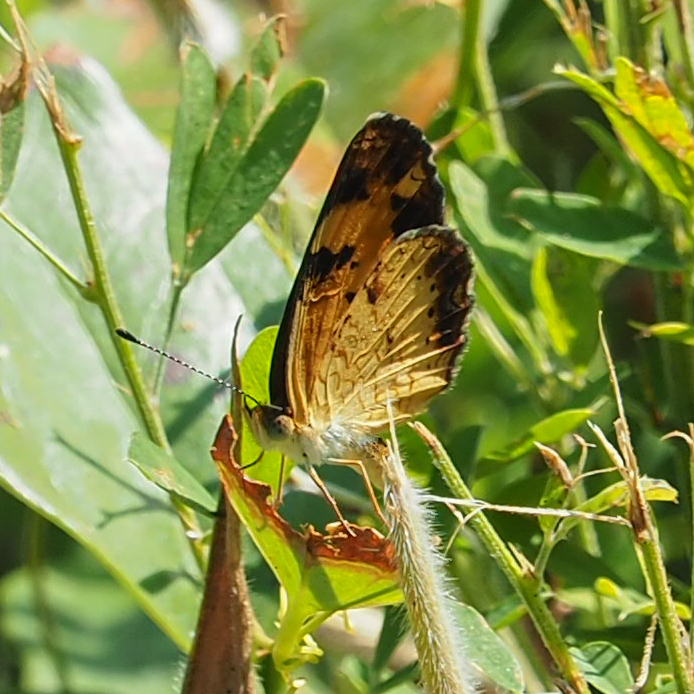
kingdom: Animalia
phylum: Arthropoda
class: Insecta
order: Lepidoptera
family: Nymphalidae
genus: Phyciodes
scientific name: Phyciodes tharos
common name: Pearl crescent
